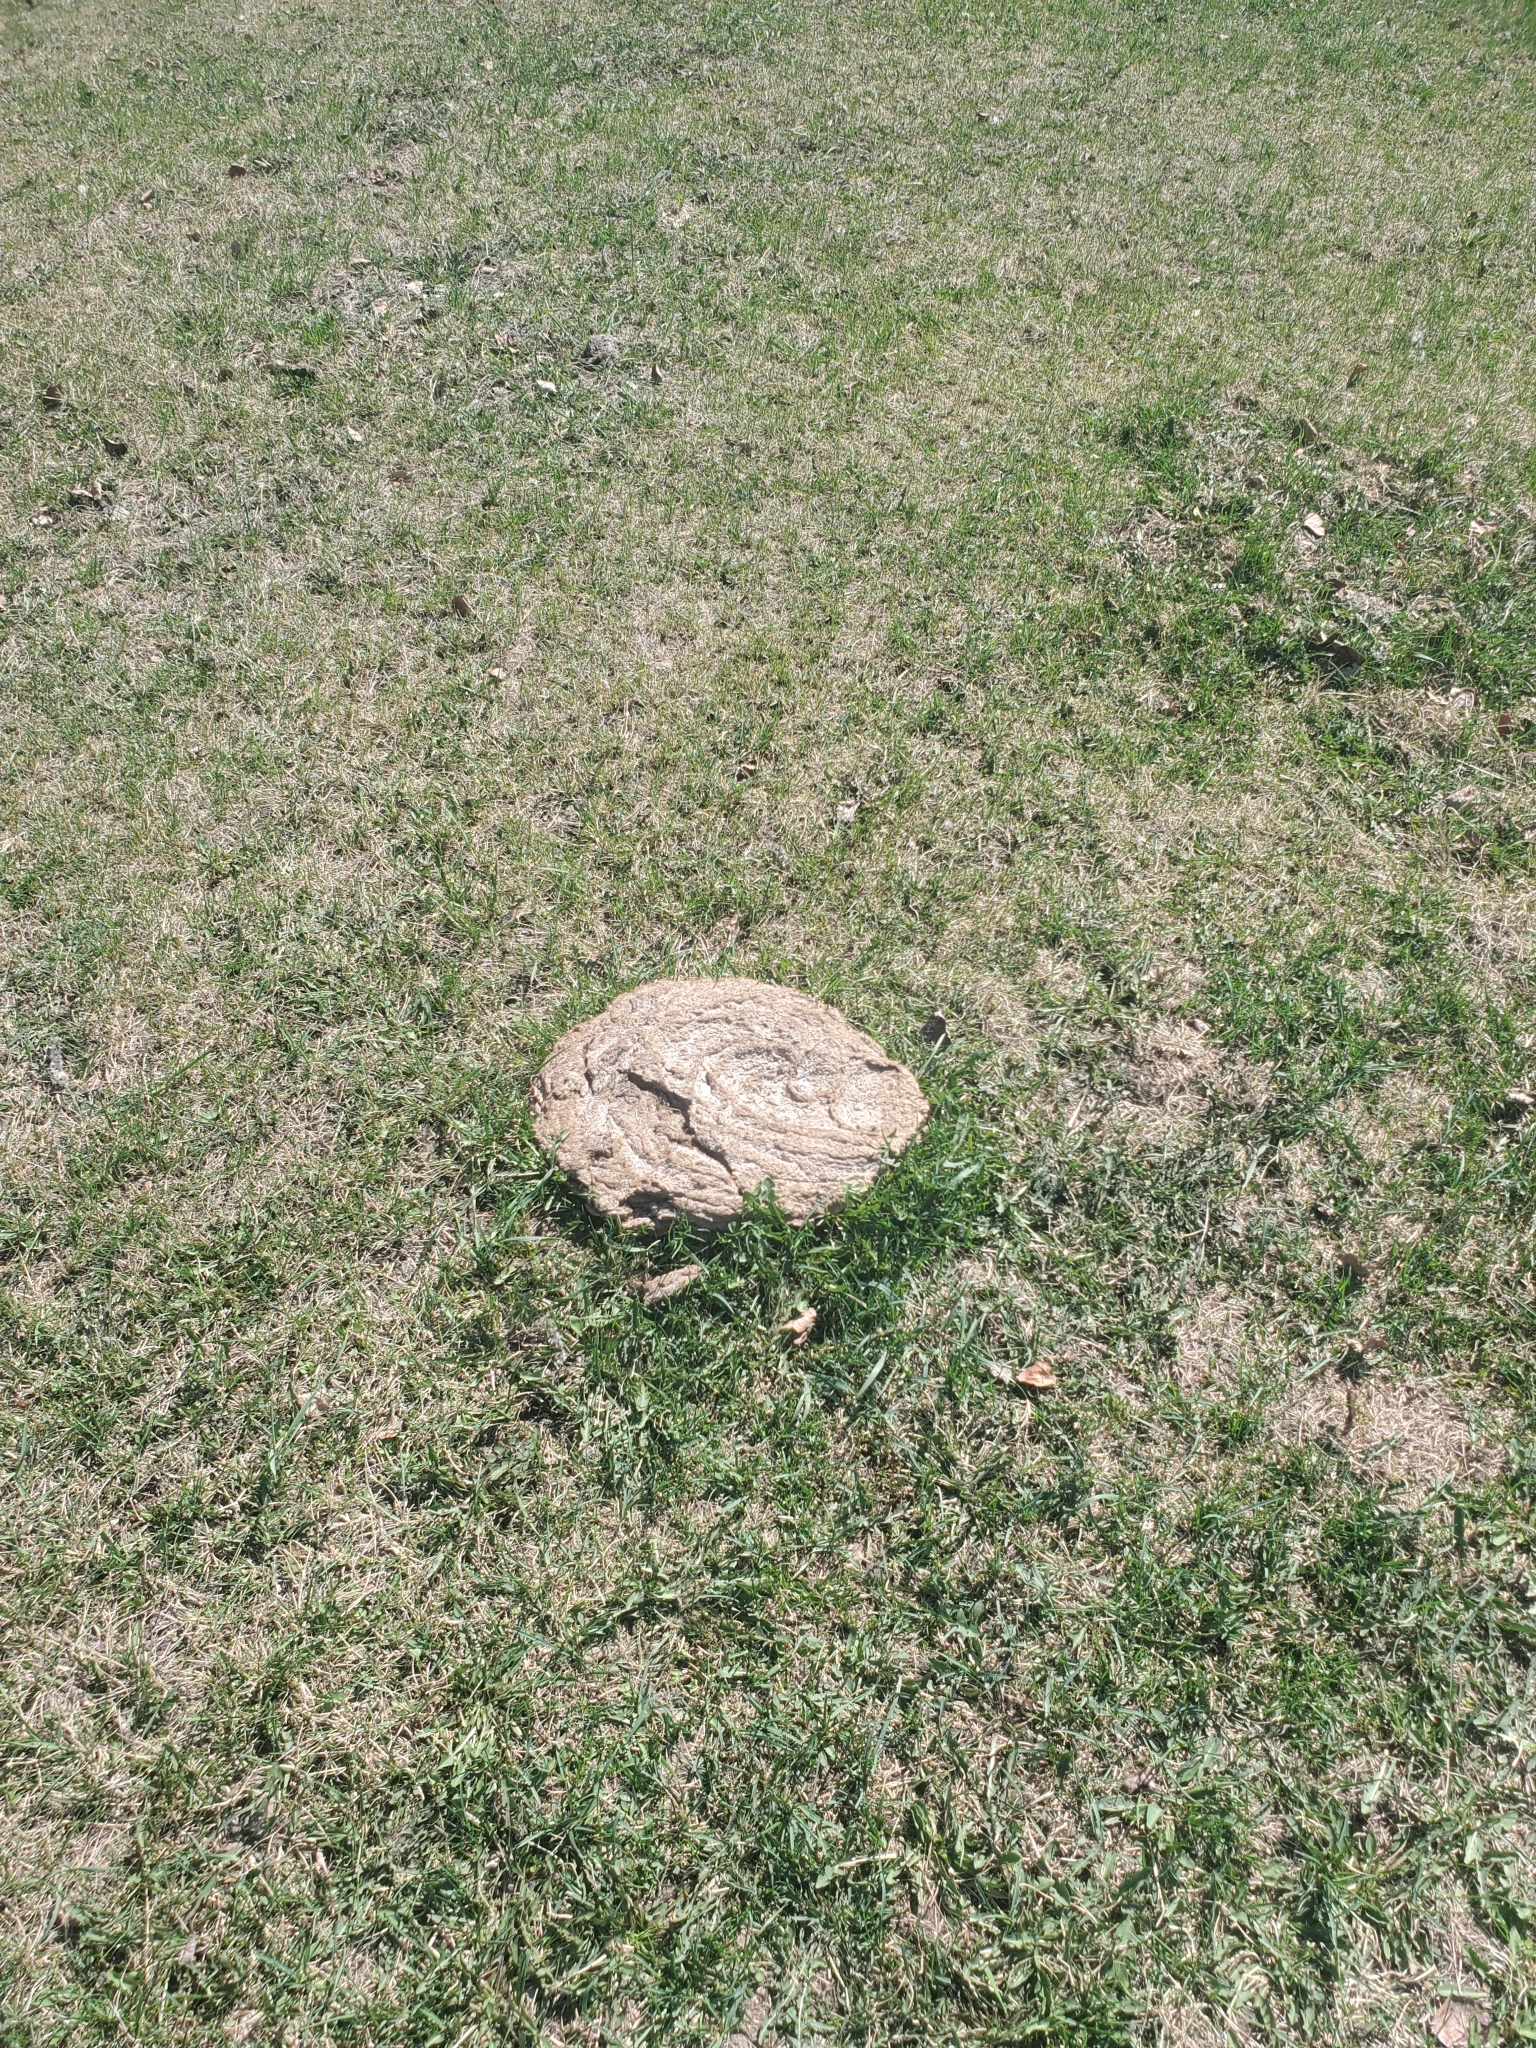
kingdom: Animalia
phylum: Chordata
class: Mammalia
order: Artiodactyla
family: Bovidae
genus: Bison
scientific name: Bison bison
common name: American bison
